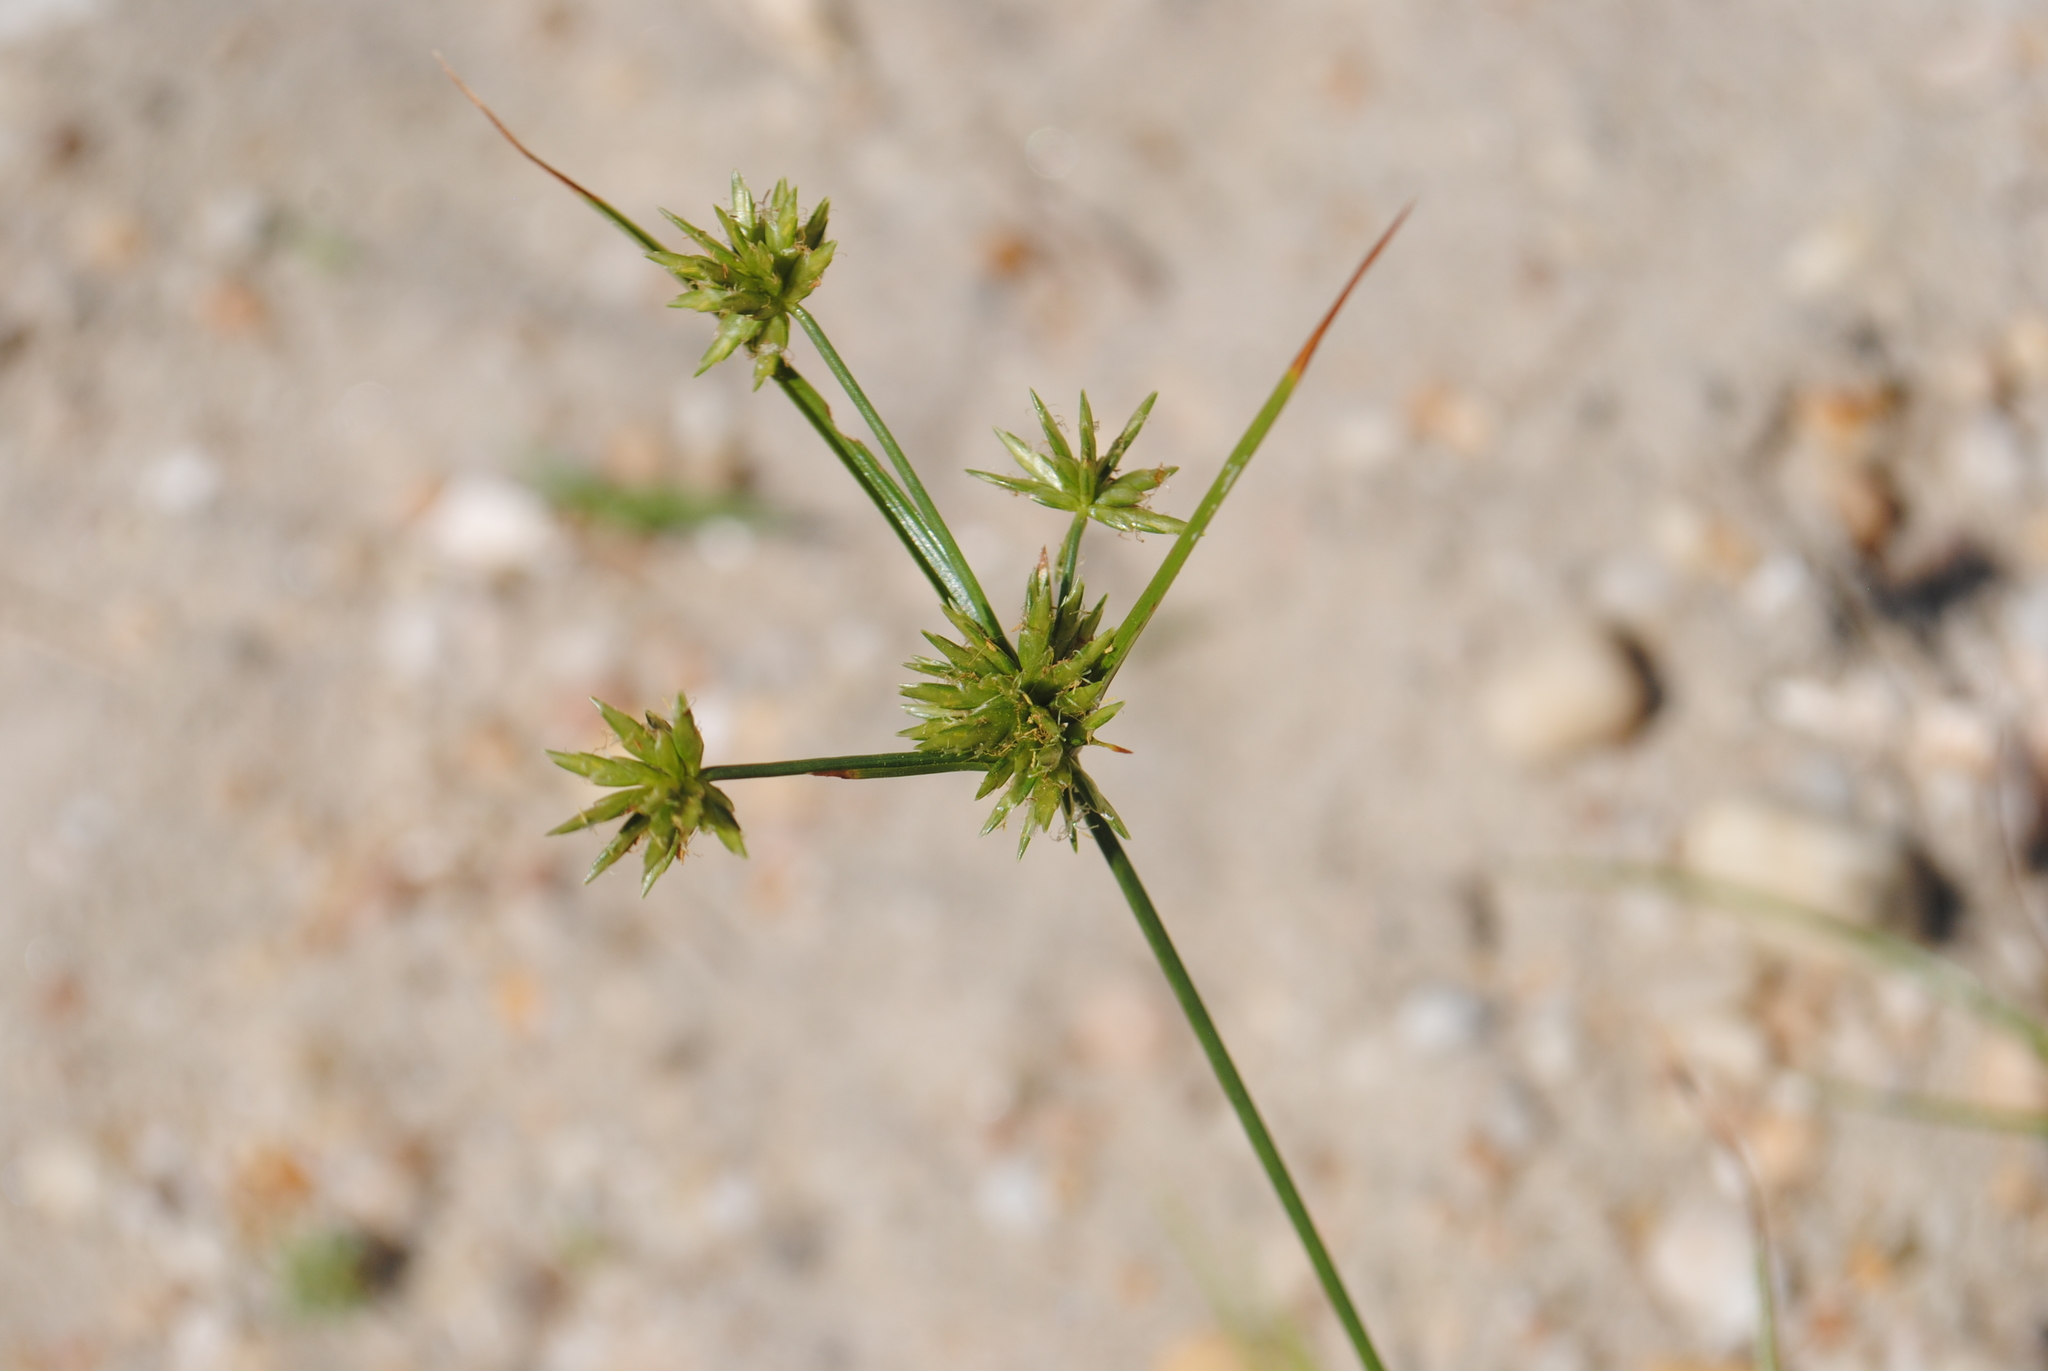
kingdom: Plantae
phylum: Tracheophyta
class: Liliopsida
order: Poales
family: Cyperaceae
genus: Cyperus
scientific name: Cyperus grayi
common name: Gray's flat sedge
